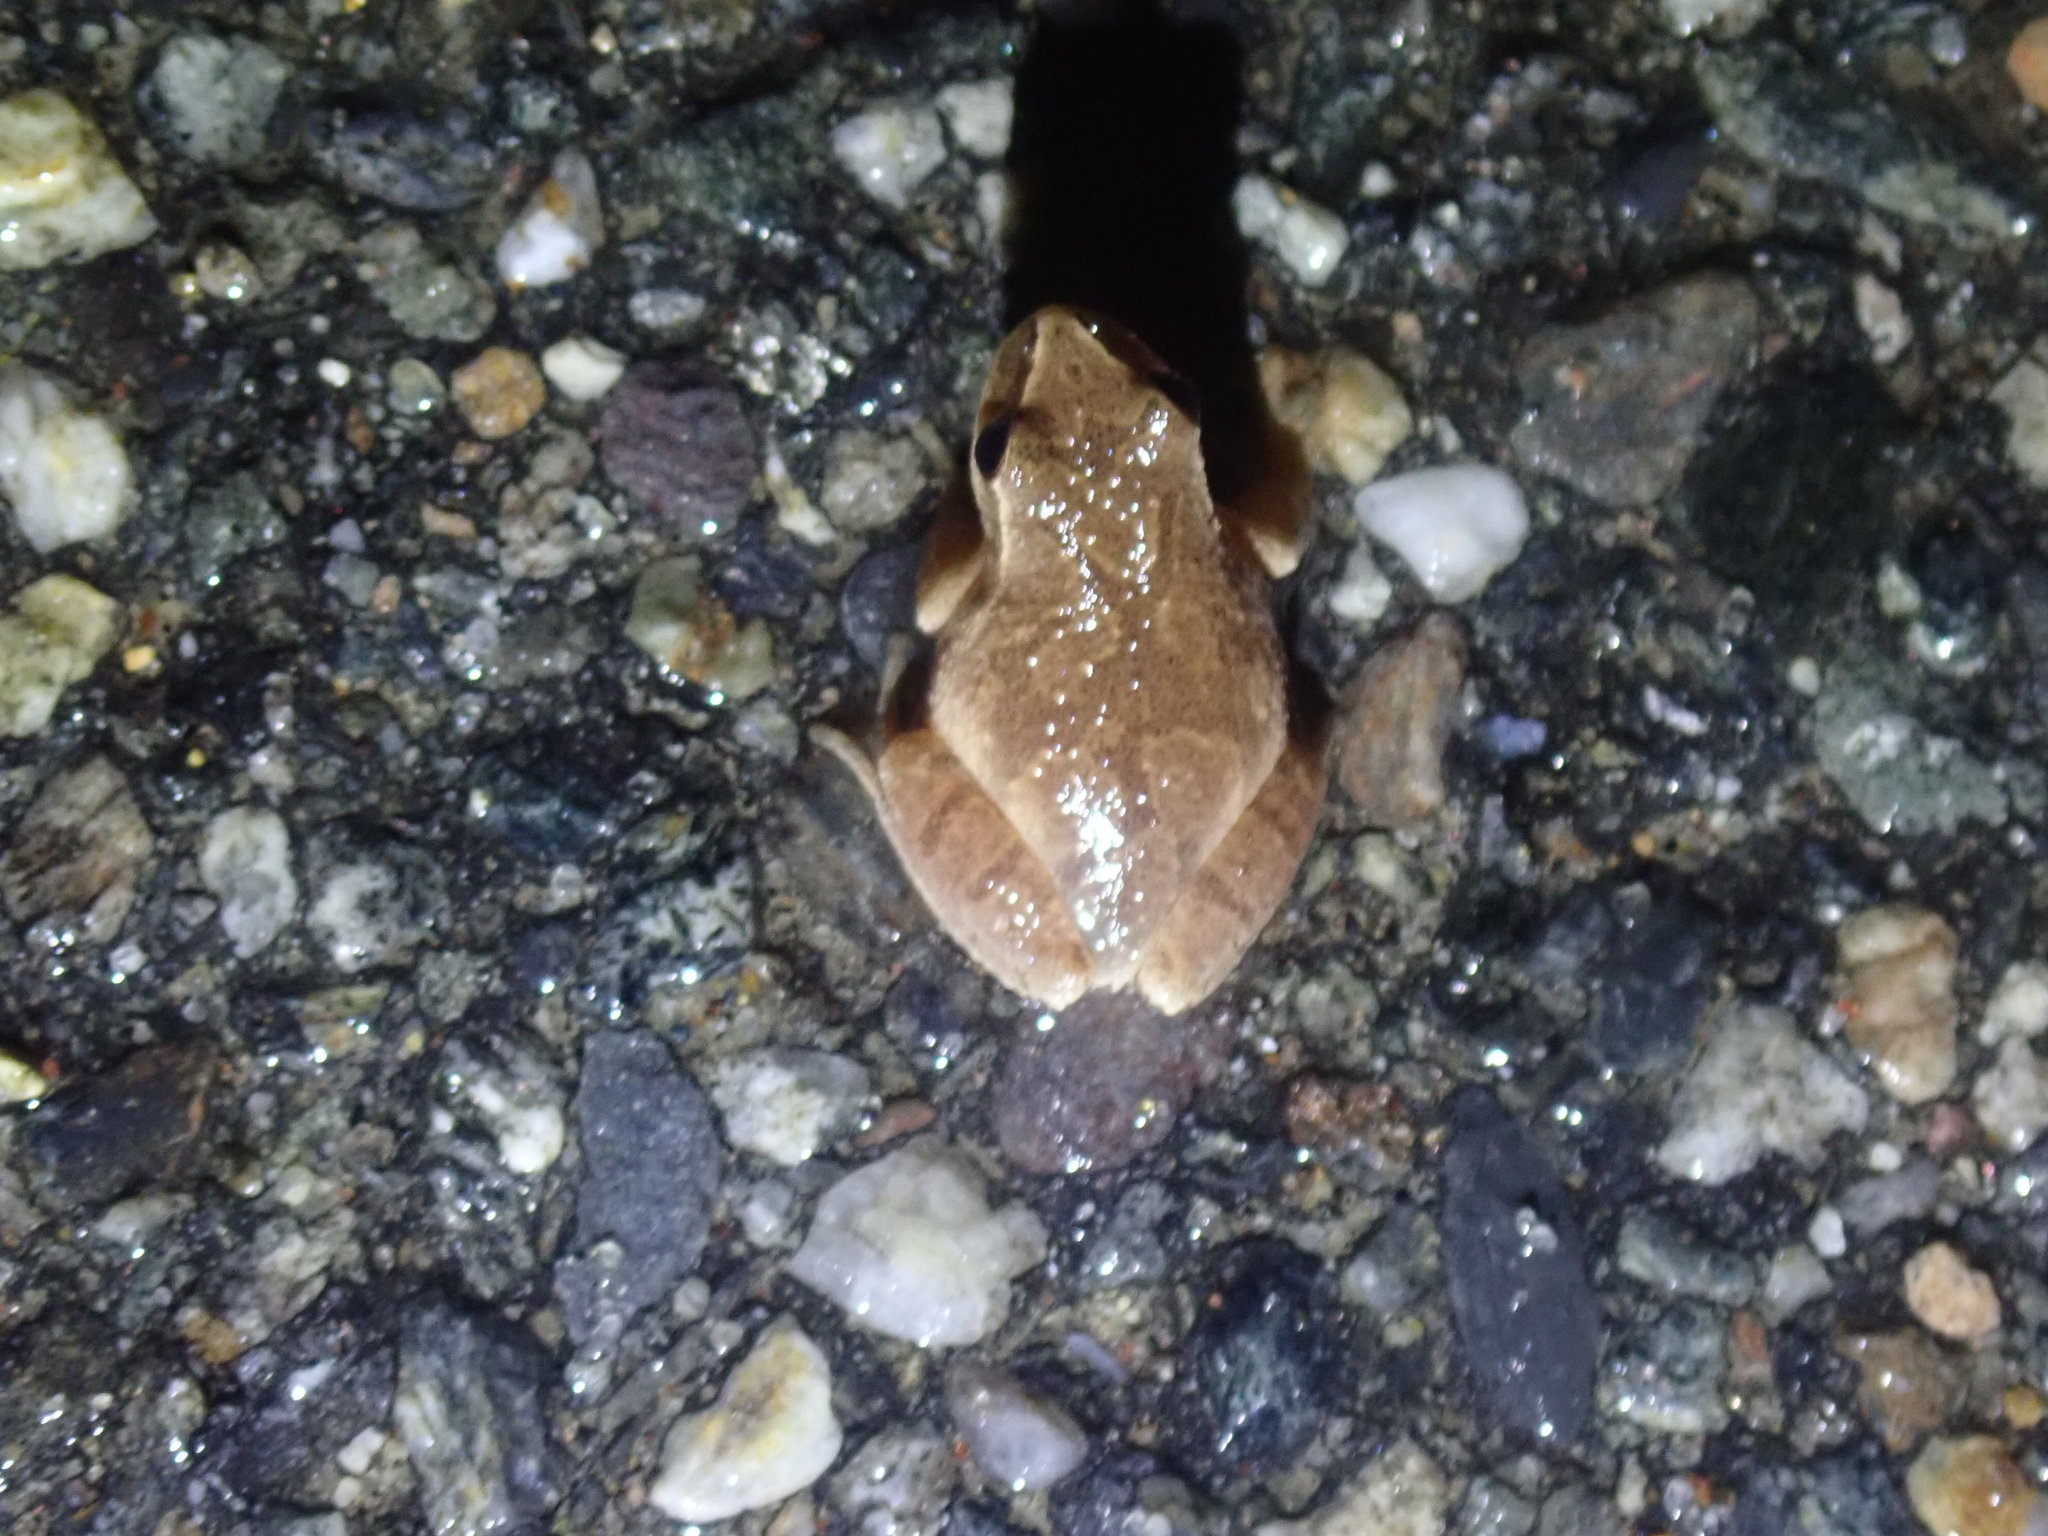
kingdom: Animalia
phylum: Chordata
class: Amphibia
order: Anura
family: Hylidae
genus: Pseudacris
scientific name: Pseudacris crucifer
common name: Spring peeper
